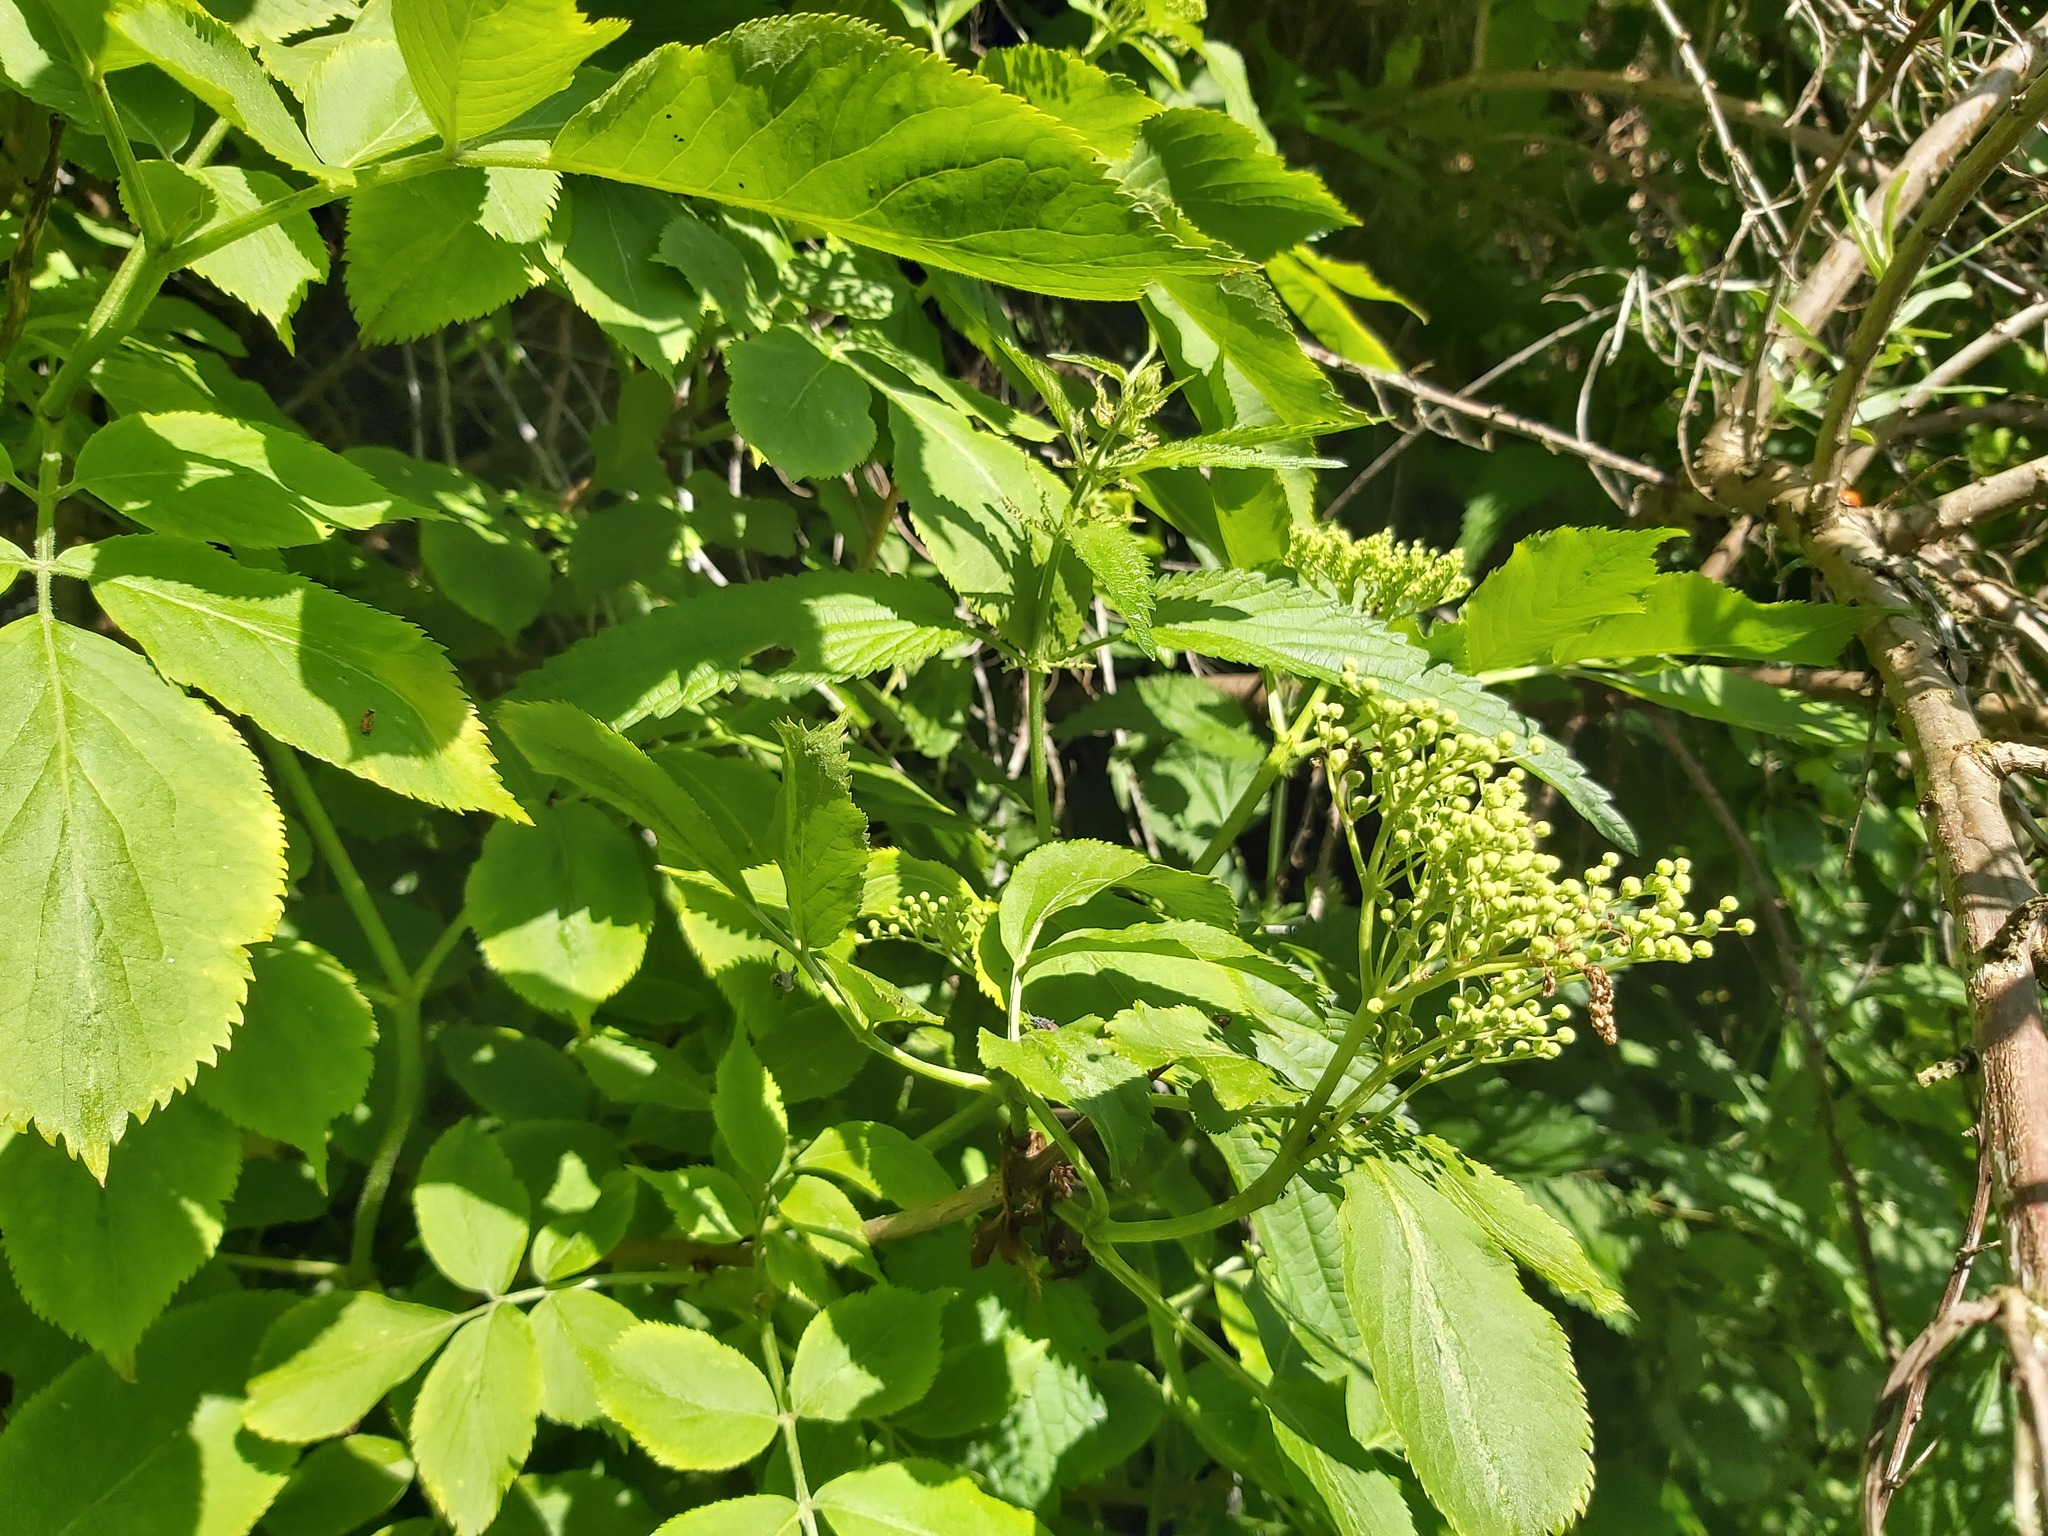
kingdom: Plantae
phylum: Tracheophyta
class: Magnoliopsida
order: Dipsacales
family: Viburnaceae
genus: Sambucus
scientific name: Sambucus nigra
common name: Elder
